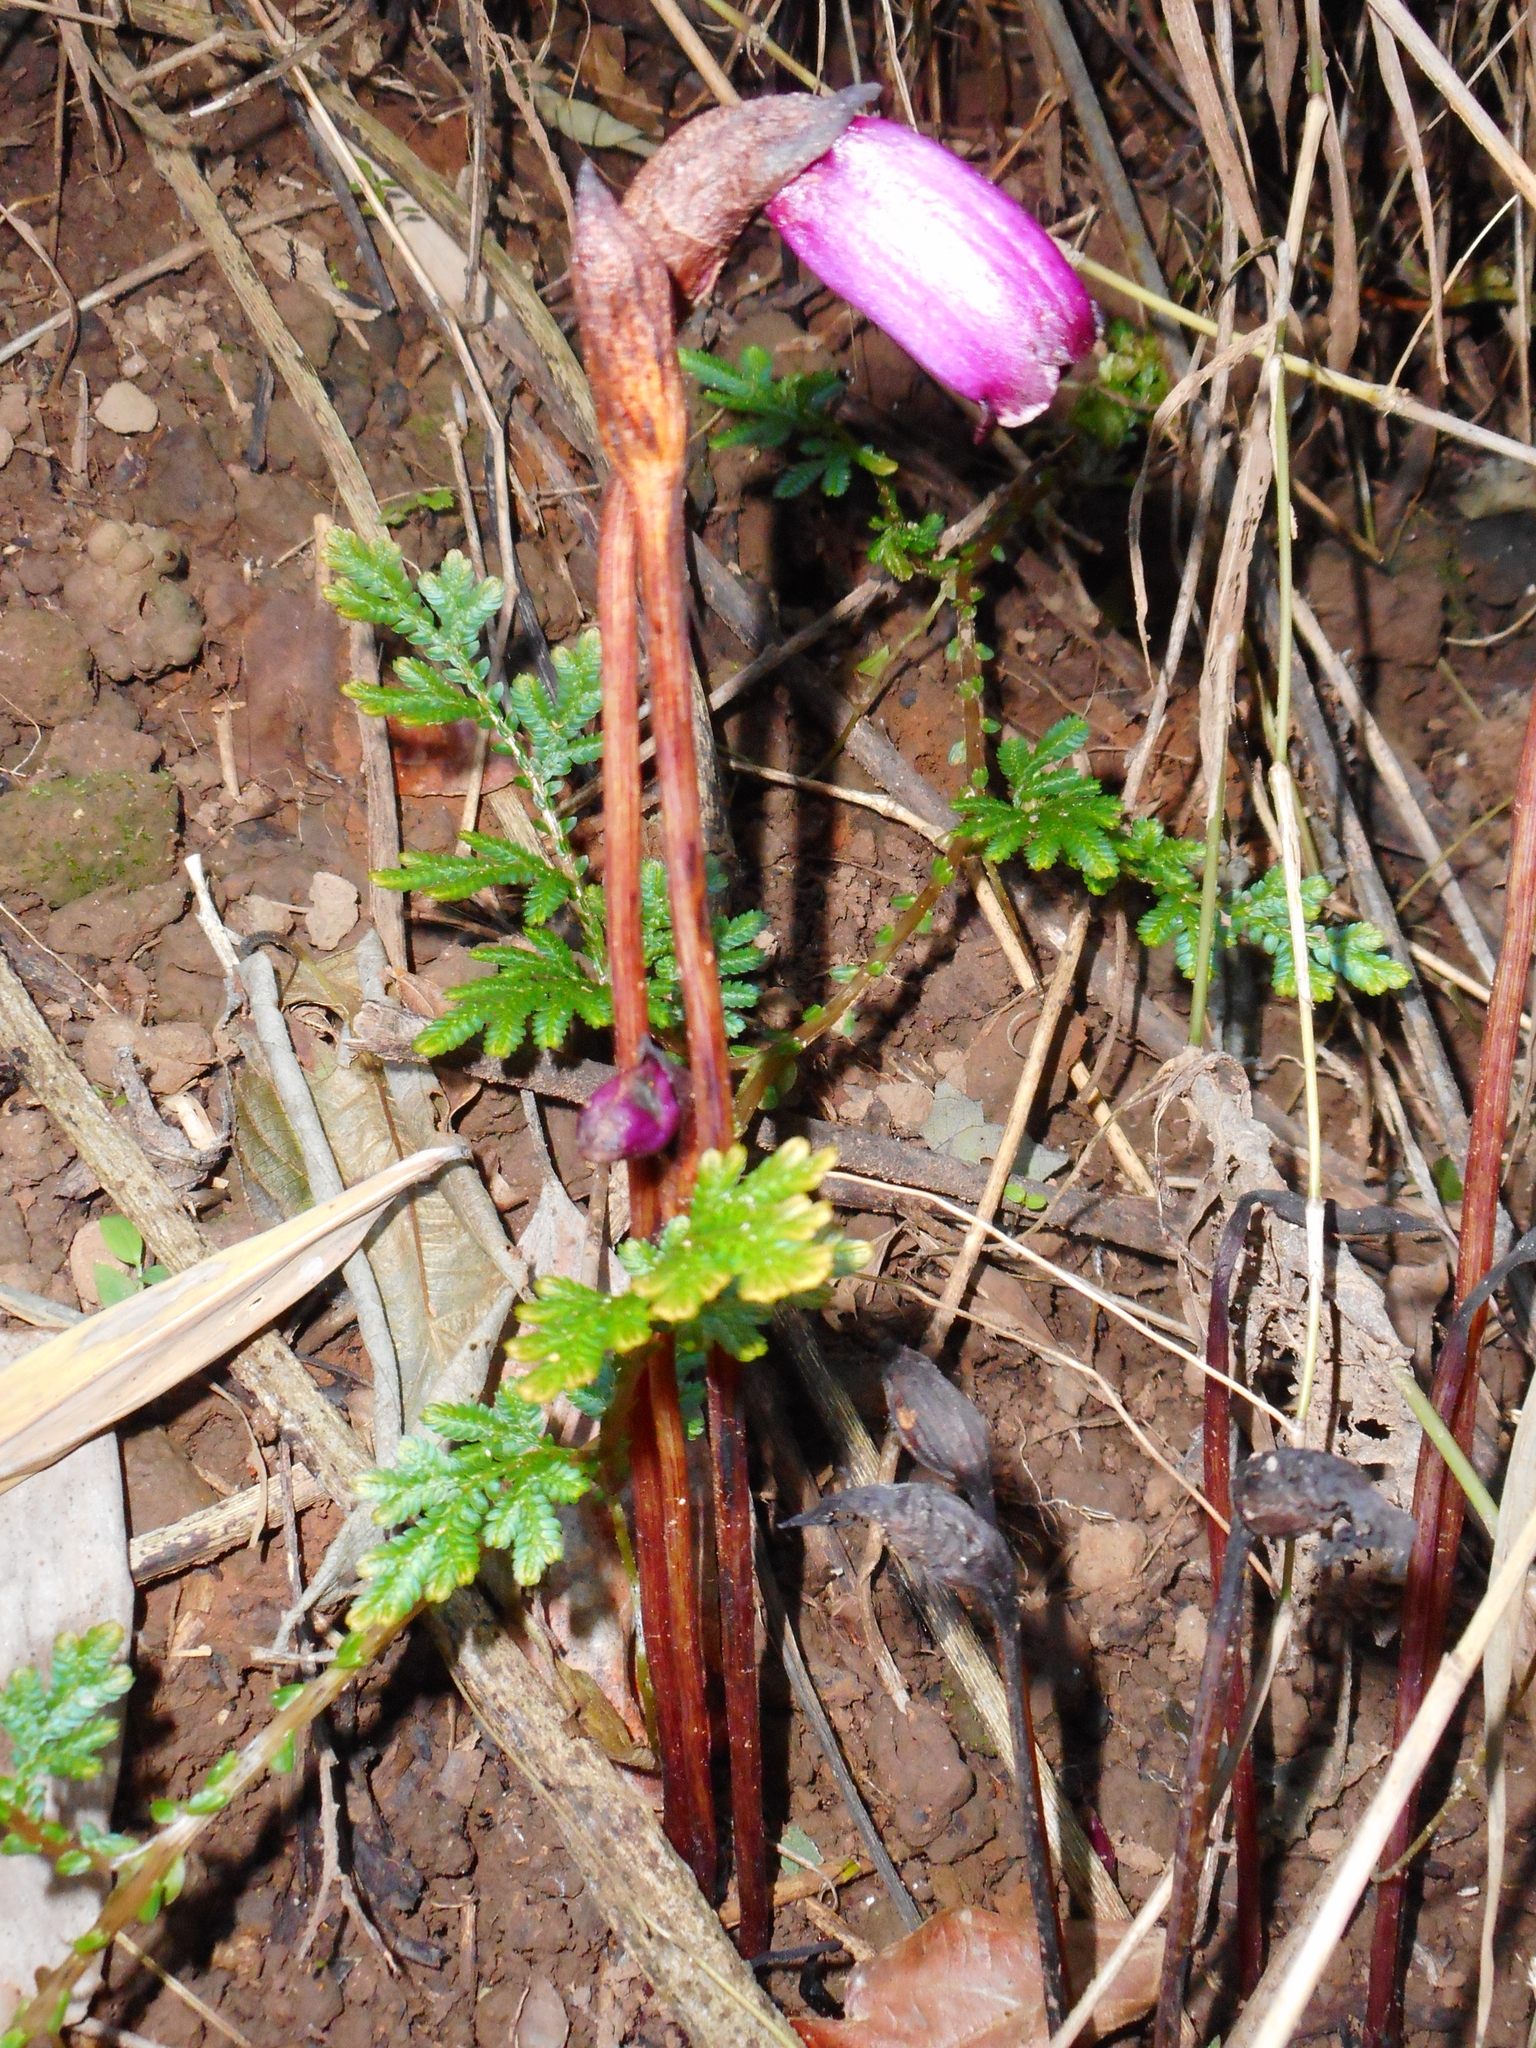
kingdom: Plantae
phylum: Tracheophyta
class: Magnoliopsida
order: Lamiales
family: Orobanchaceae
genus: Aeginetia
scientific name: Aeginetia indica
